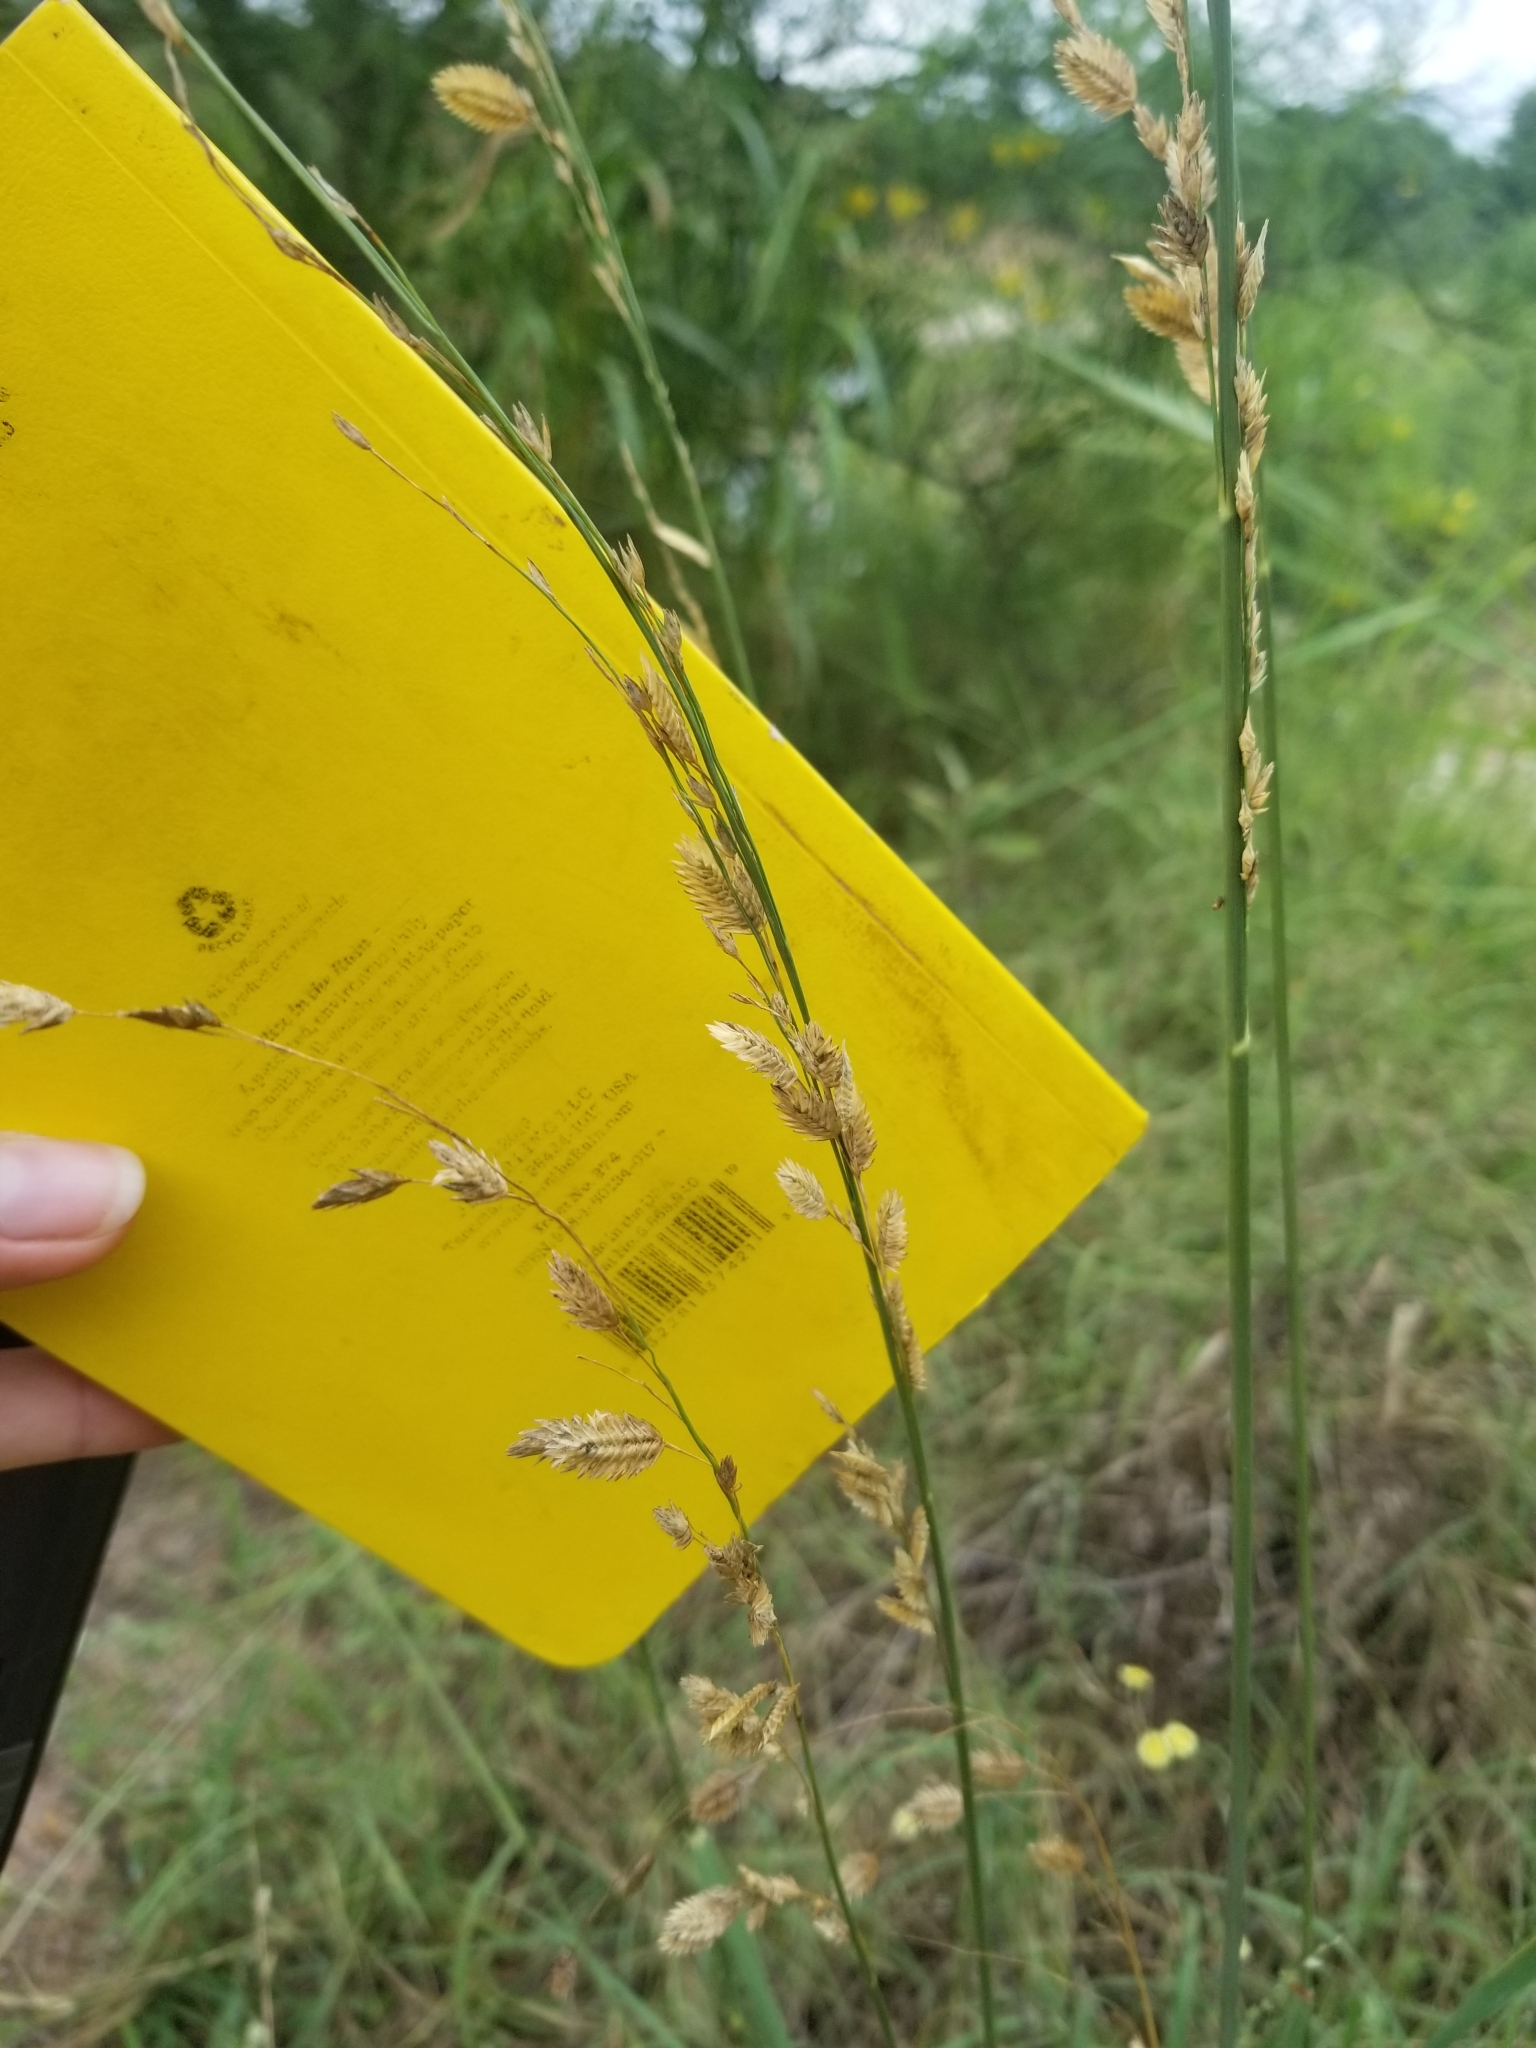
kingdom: Plantae
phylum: Tracheophyta
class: Liliopsida
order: Poales
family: Poaceae
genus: Eragrostis
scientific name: Eragrostis superba
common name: Wilman lovegrass
